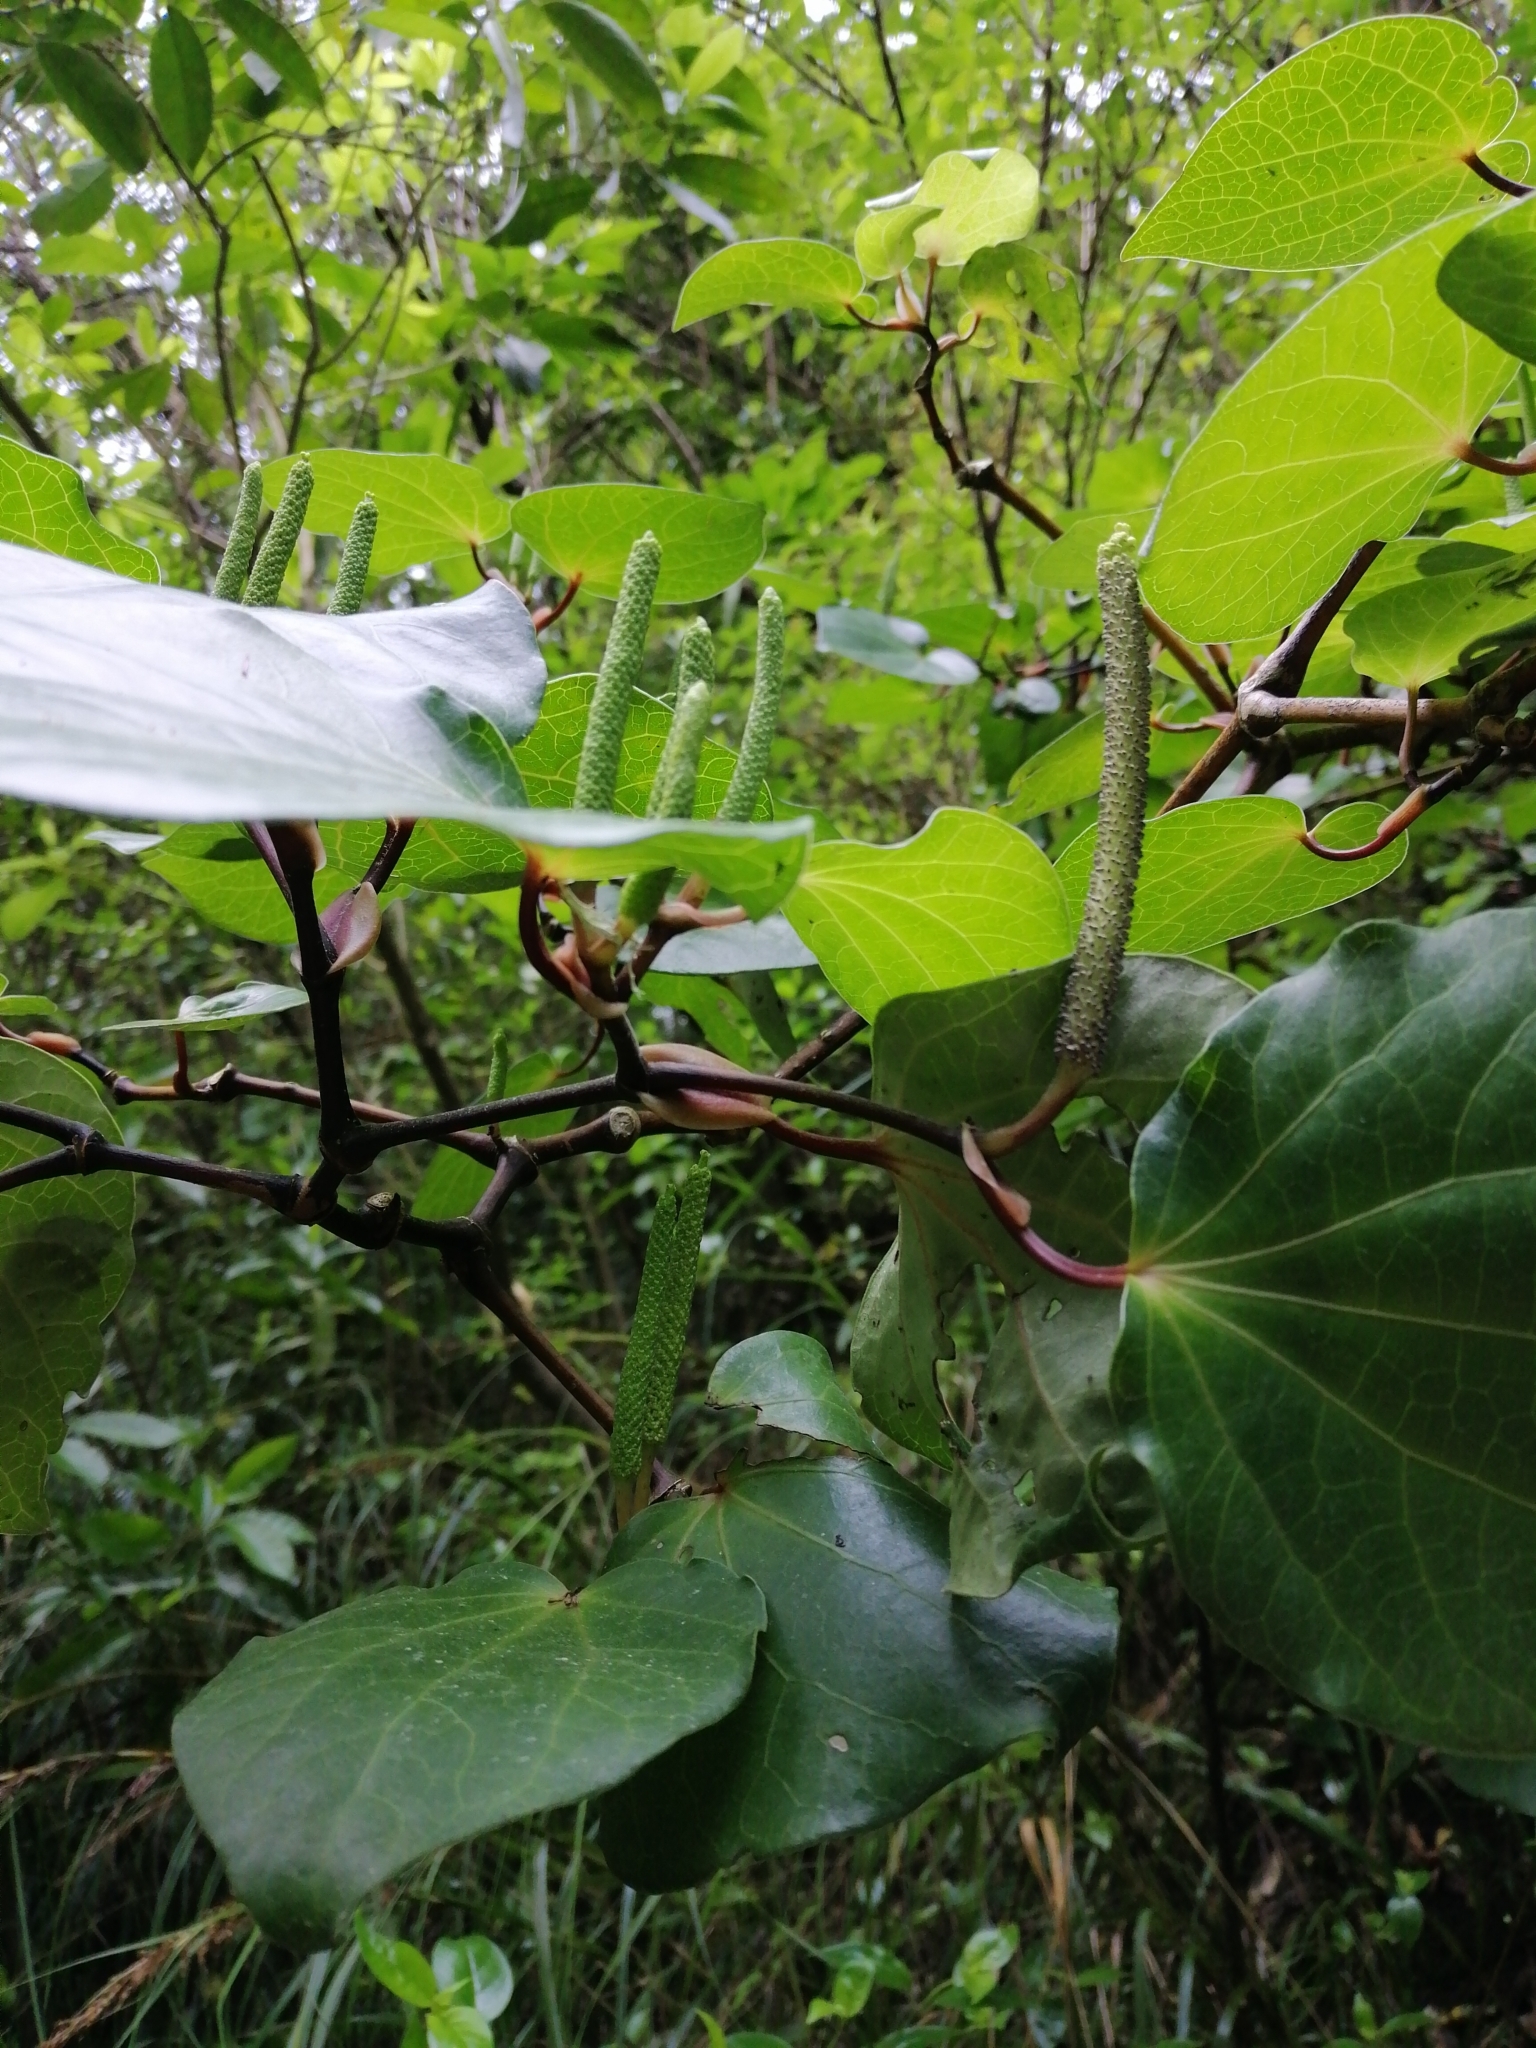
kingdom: Plantae
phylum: Tracheophyta
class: Magnoliopsida
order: Piperales
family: Piperaceae
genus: Macropiper
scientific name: Macropiper excelsum
